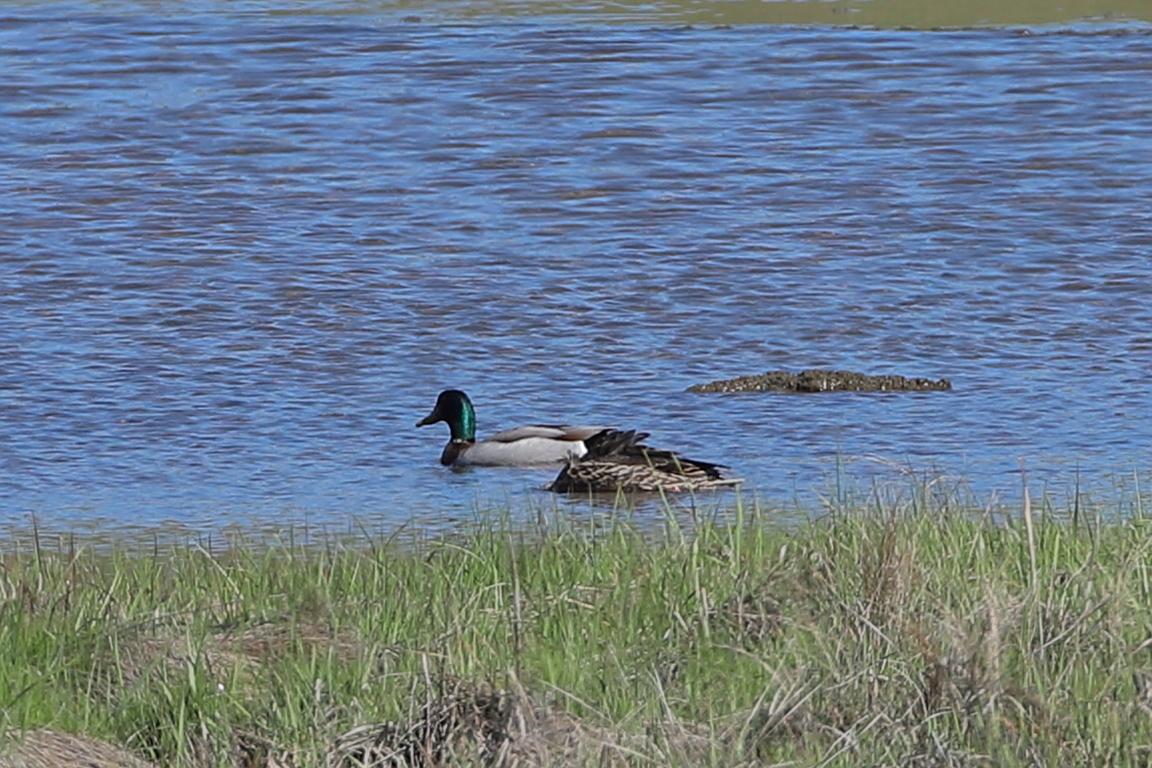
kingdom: Animalia
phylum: Chordata
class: Aves
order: Anseriformes
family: Anatidae
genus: Anas
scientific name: Anas platyrhynchos
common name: Mallard
